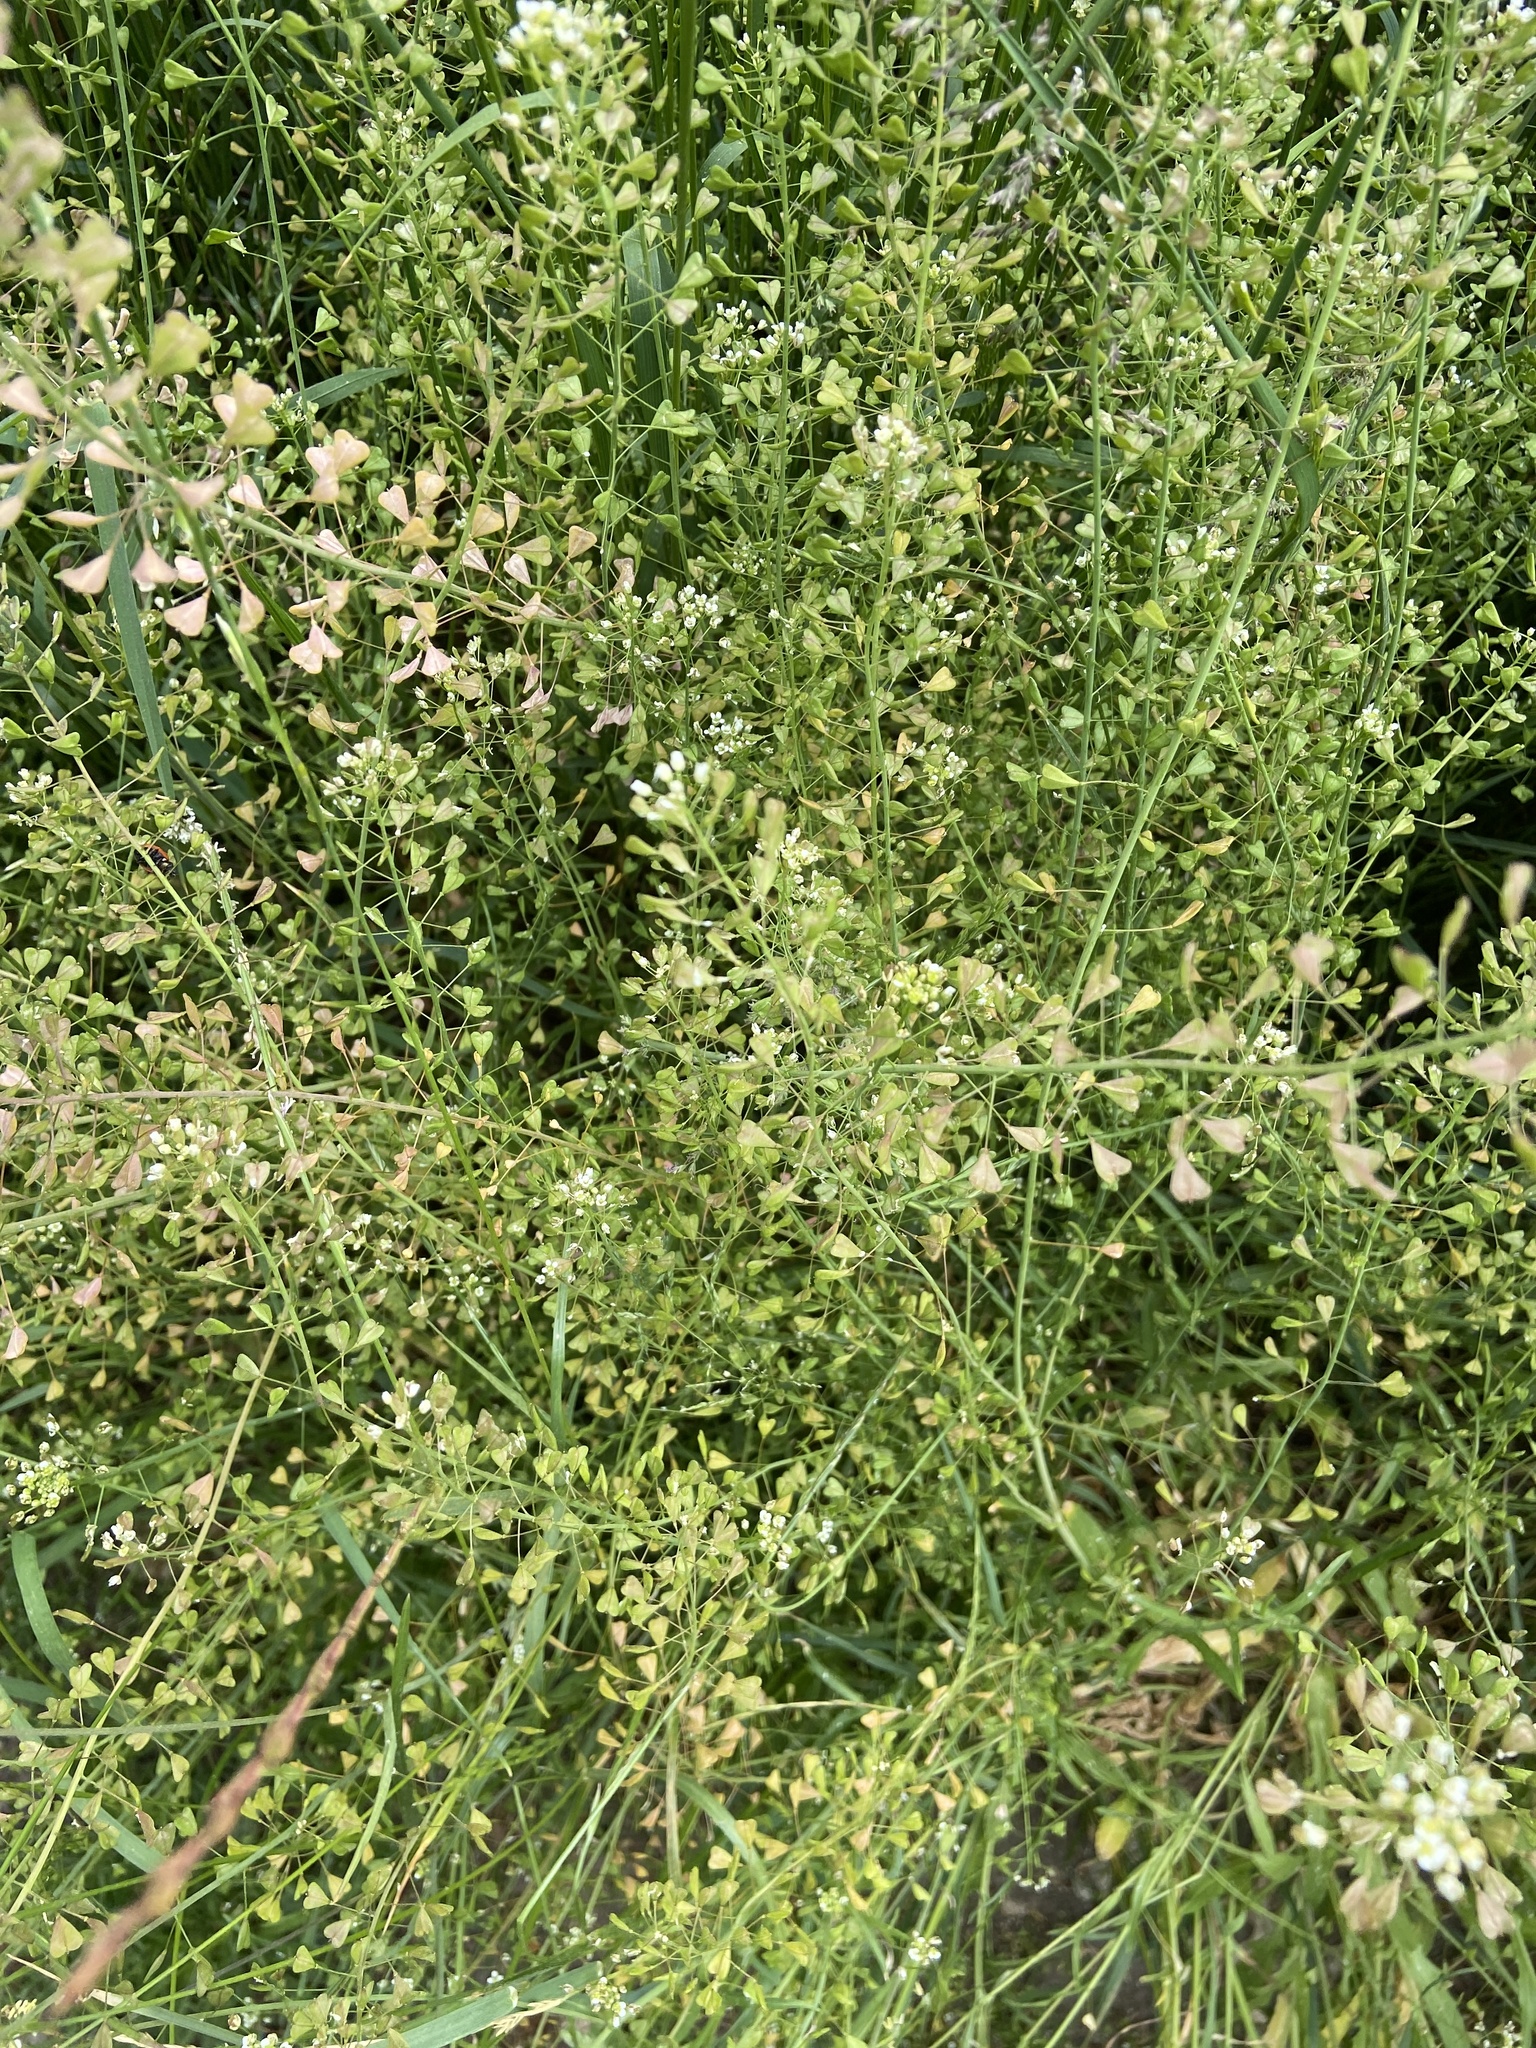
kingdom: Plantae
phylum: Tracheophyta
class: Magnoliopsida
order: Brassicales
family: Brassicaceae
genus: Capsella
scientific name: Capsella bursa-pastoris
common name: Shepherd's purse
